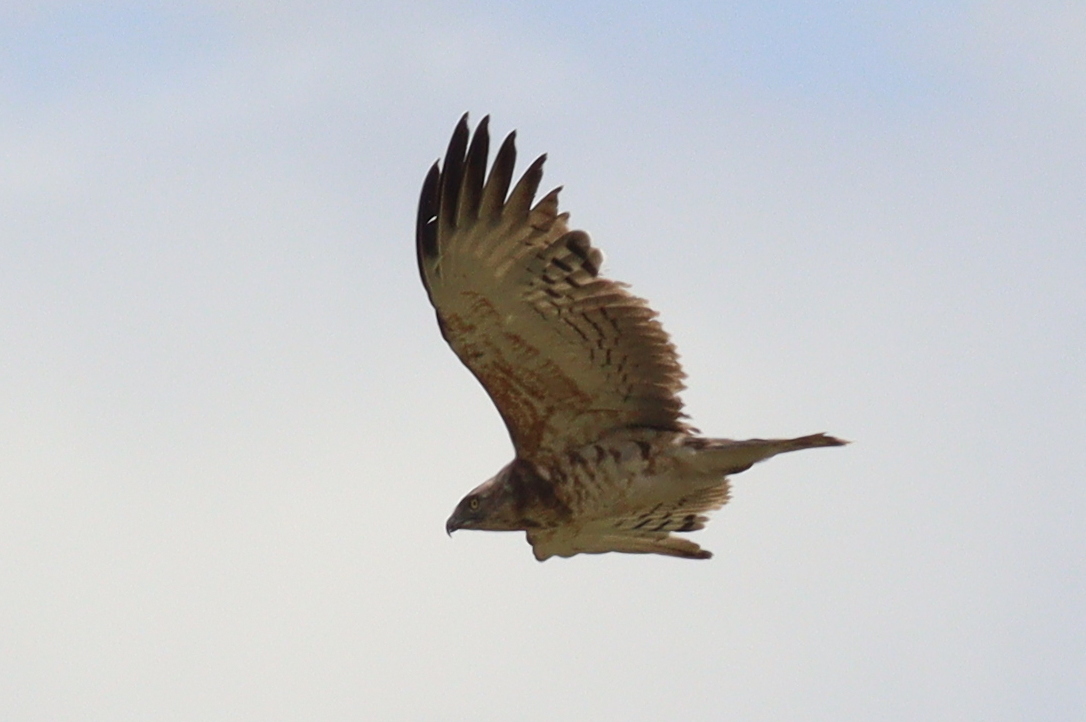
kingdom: Animalia
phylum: Chordata
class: Aves
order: Accipitriformes
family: Accipitridae
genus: Circaetus
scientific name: Circaetus pectoralis
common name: Black-chested snake eagle
